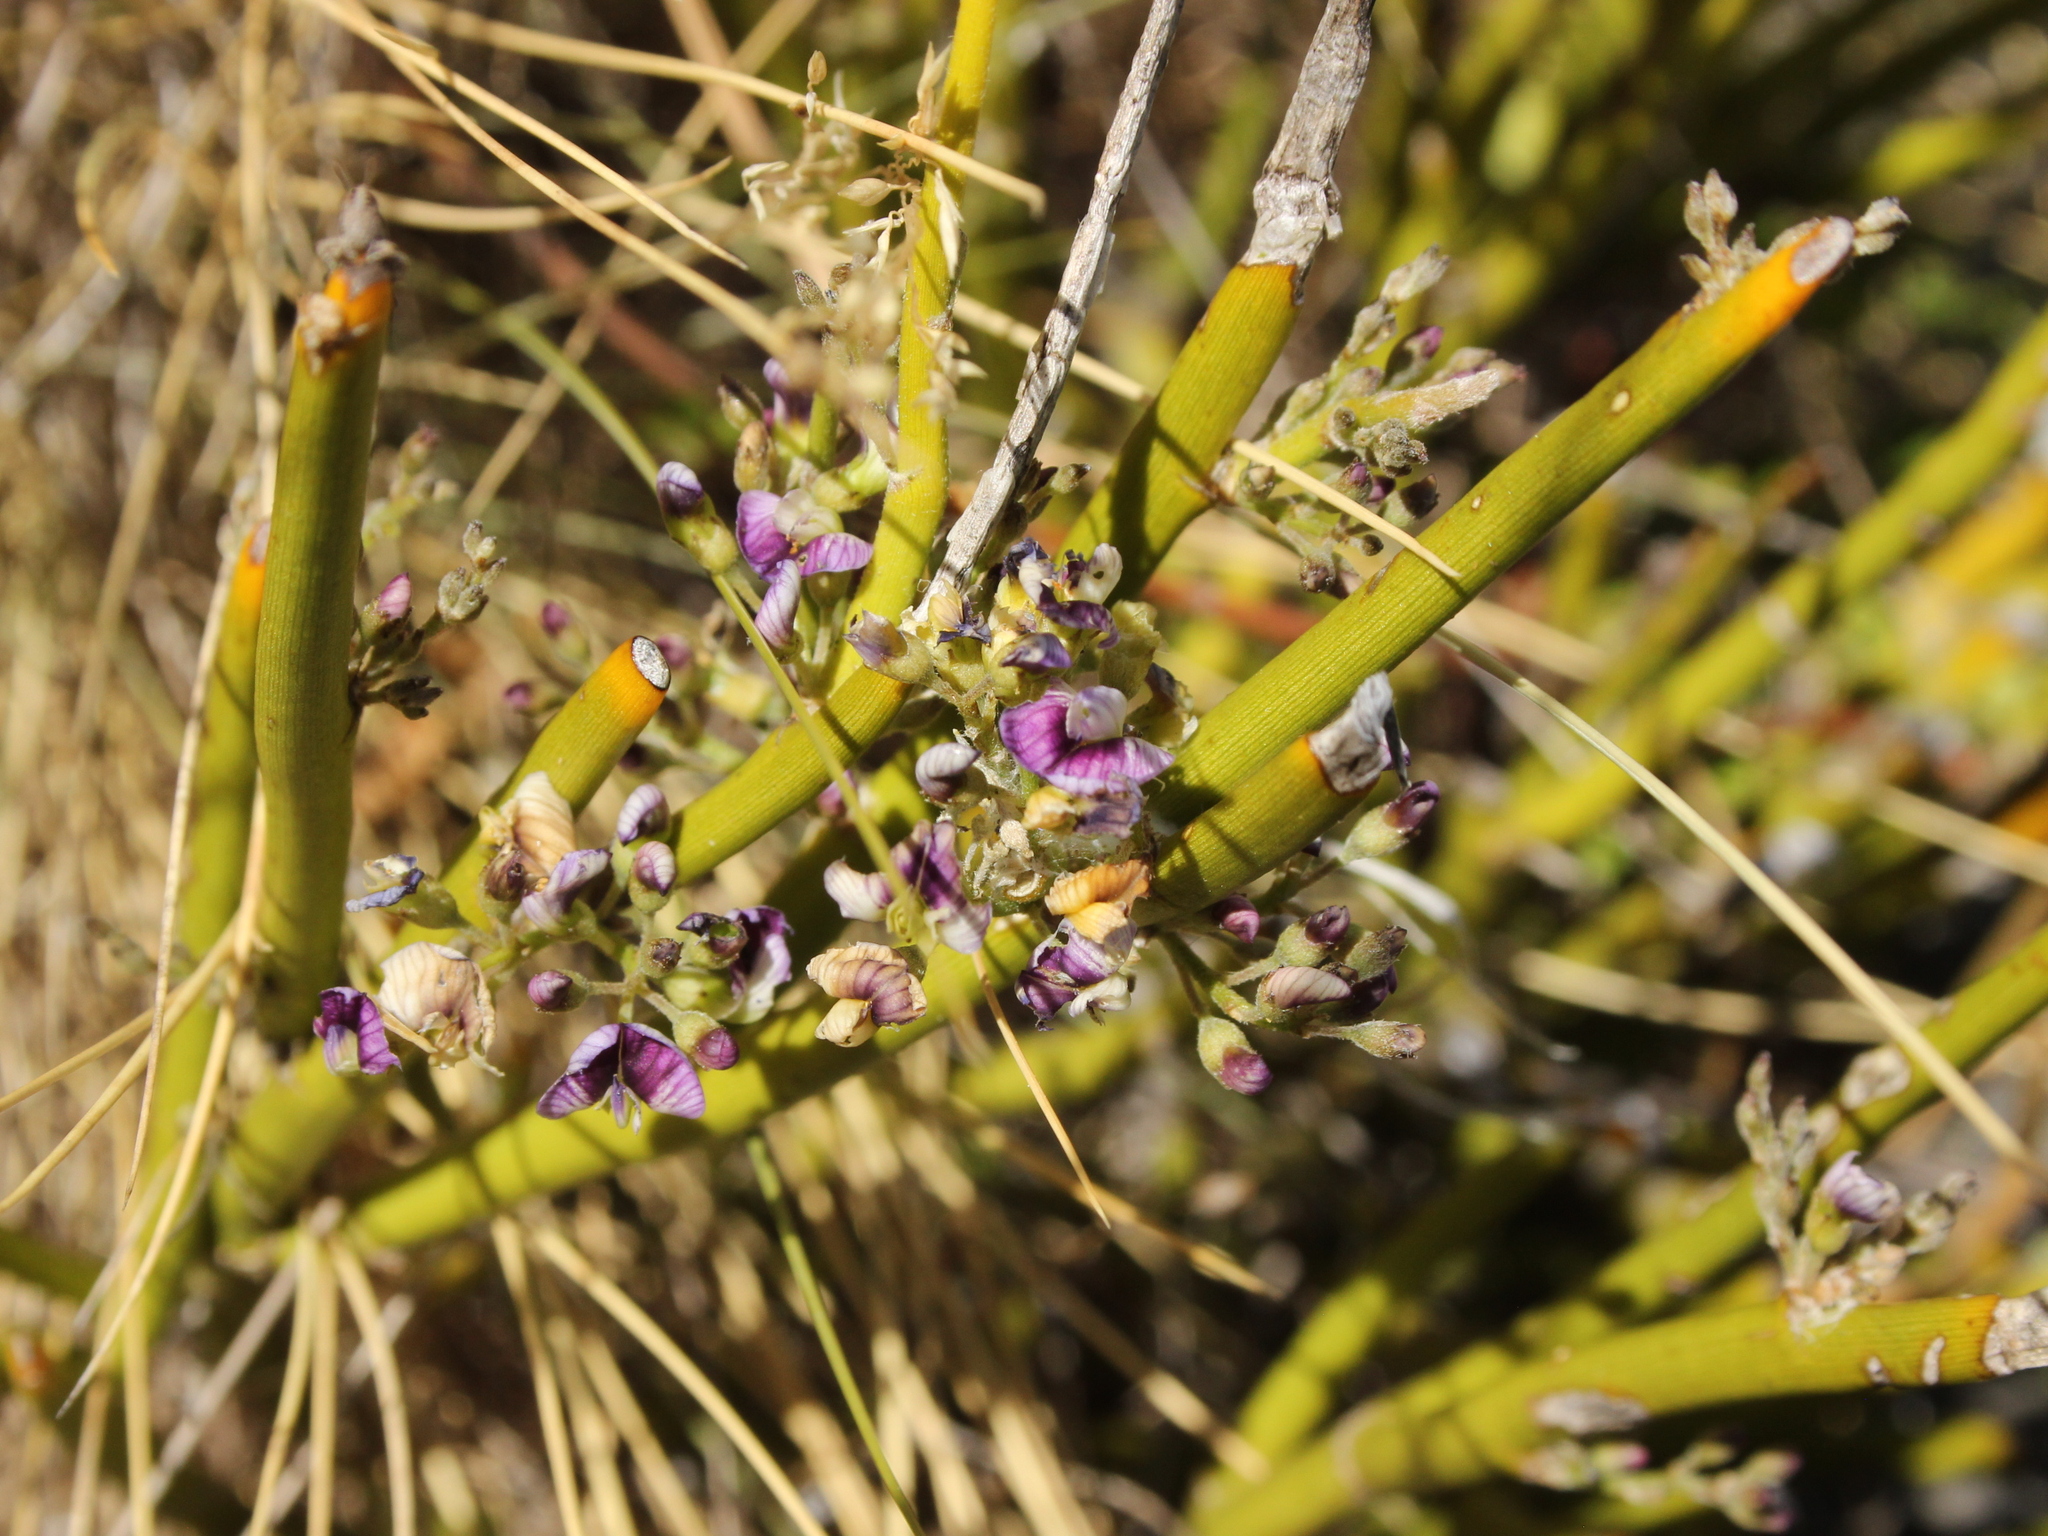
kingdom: Plantae
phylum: Tracheophyta
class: Magnoliopsida
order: Fabales
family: Fabaceae
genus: Carmichaelia
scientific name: Carmichaelia petriei
